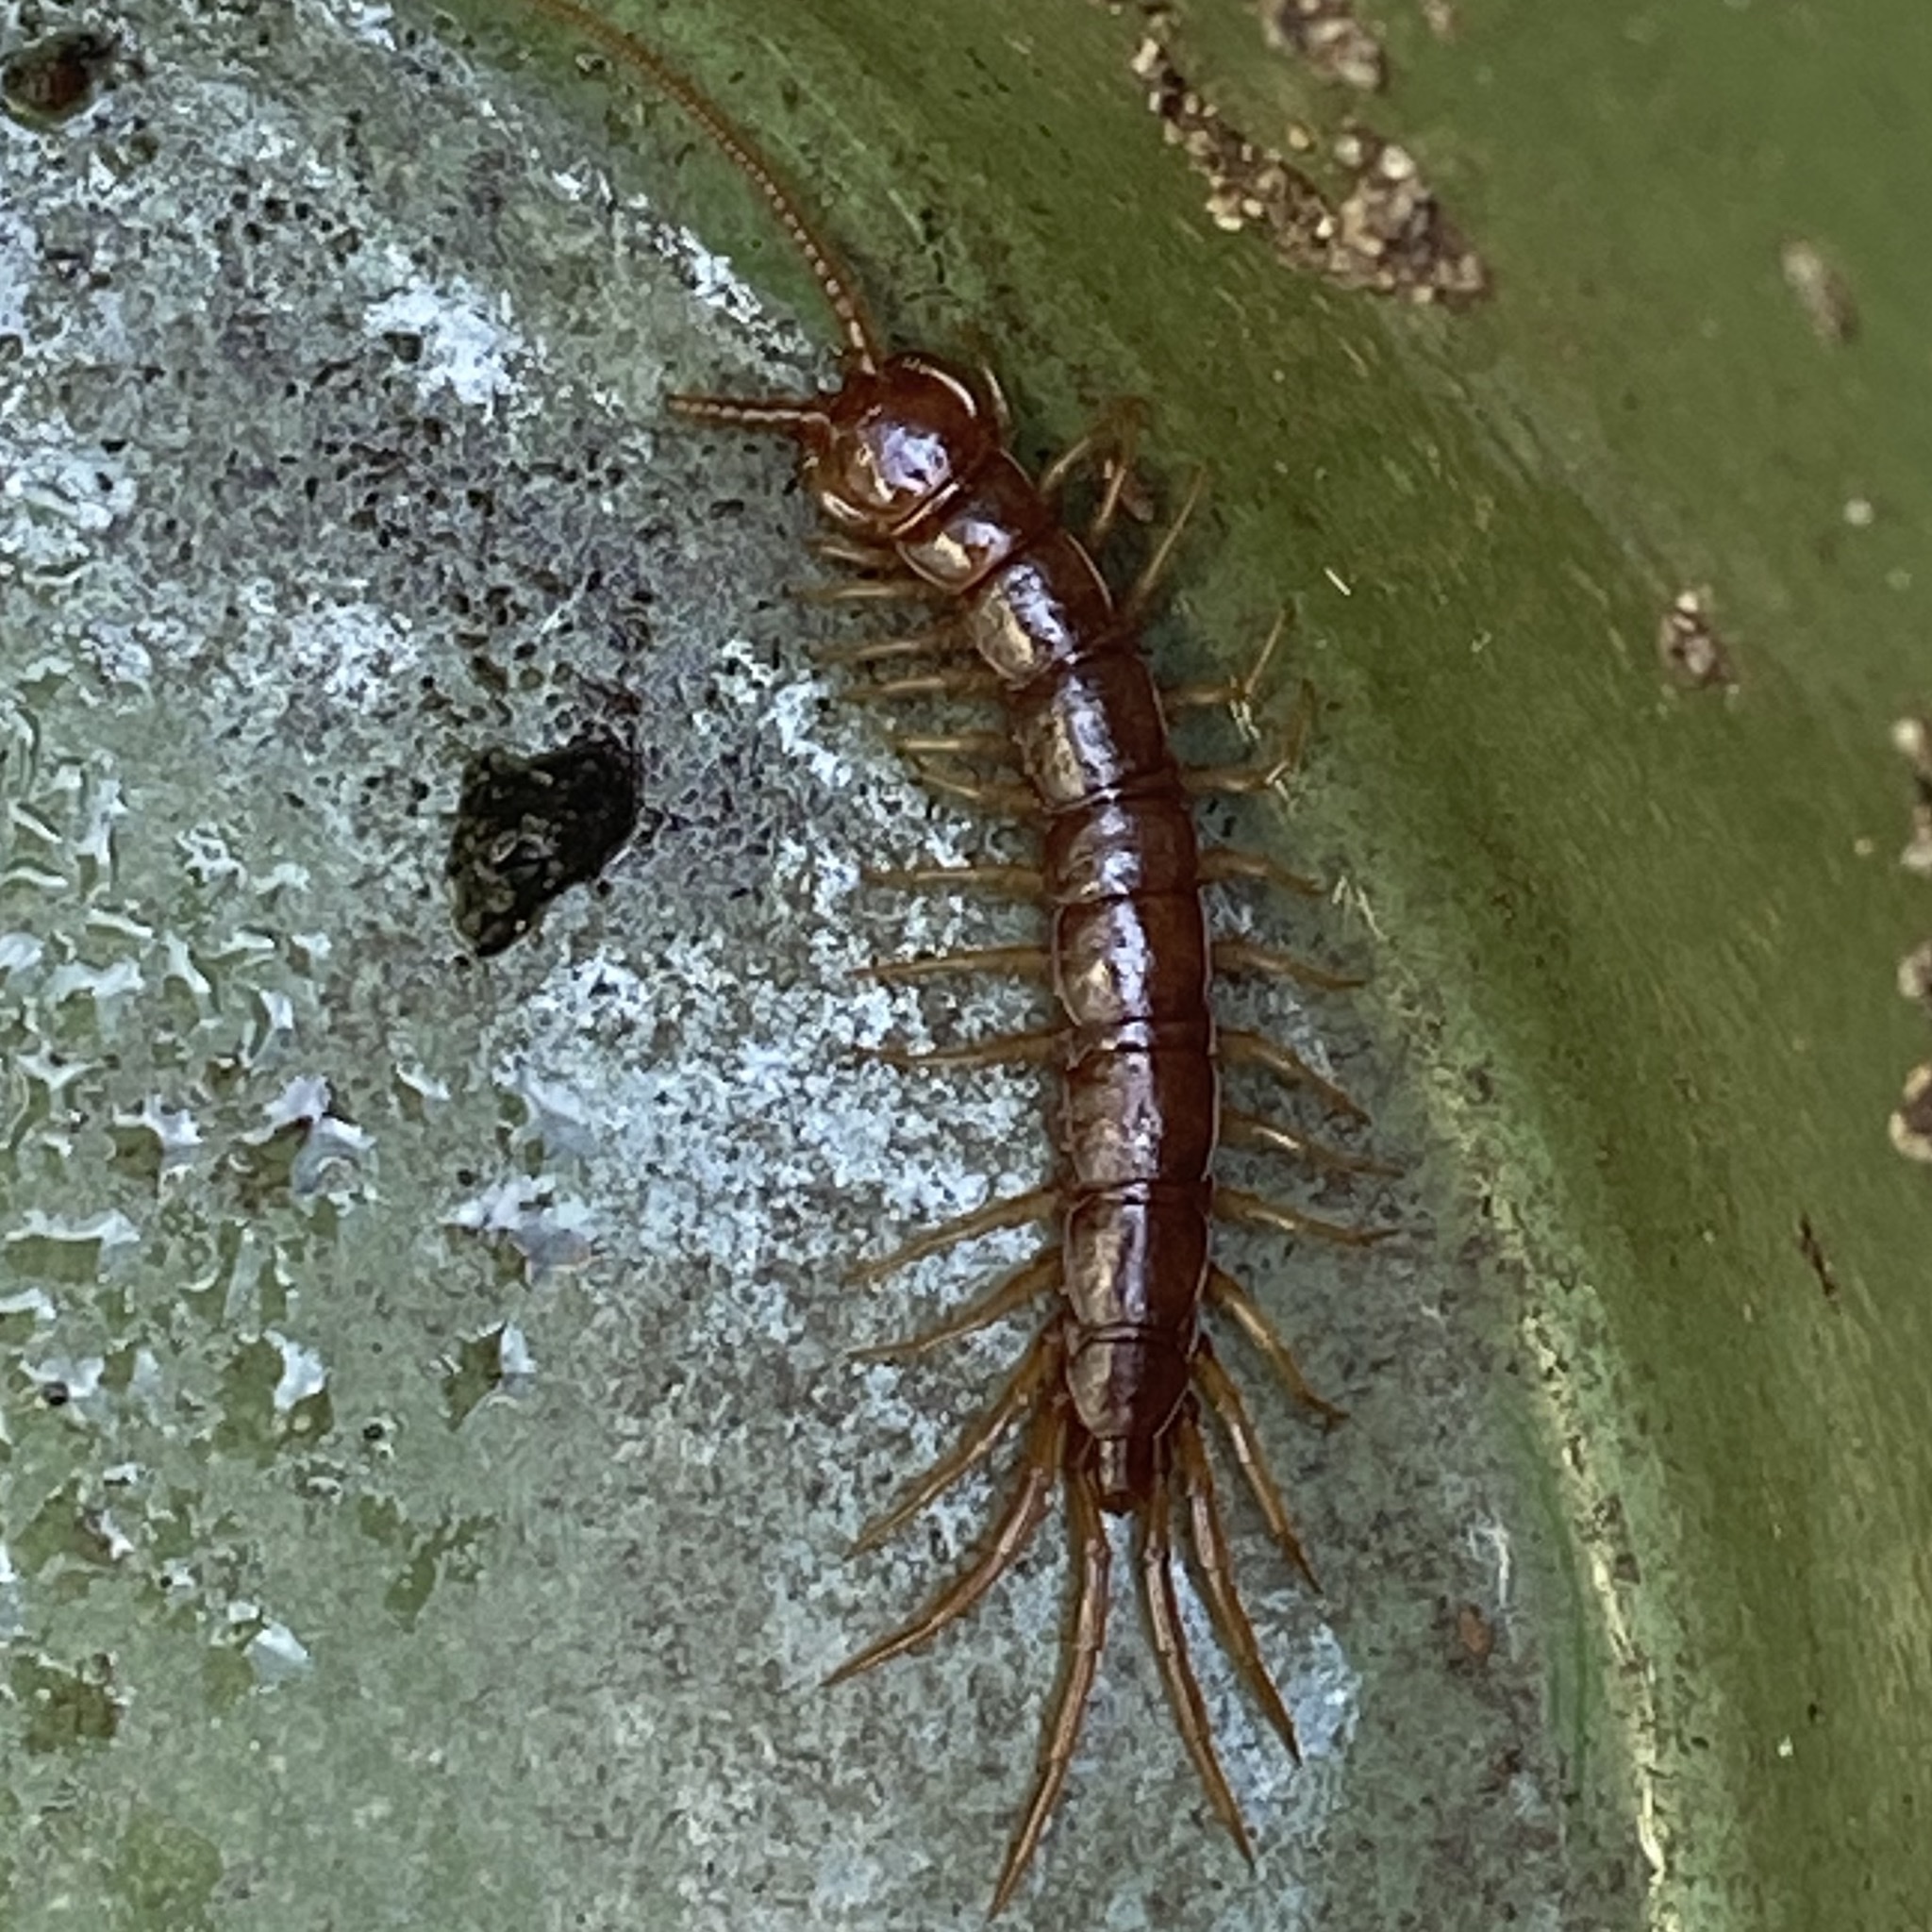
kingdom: Animalia
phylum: Arthropoda
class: Chilopoda
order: Lithobiomorpha
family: Lithobiidae
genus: Lithobius
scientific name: Lithobius forficatus
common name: Centipede
